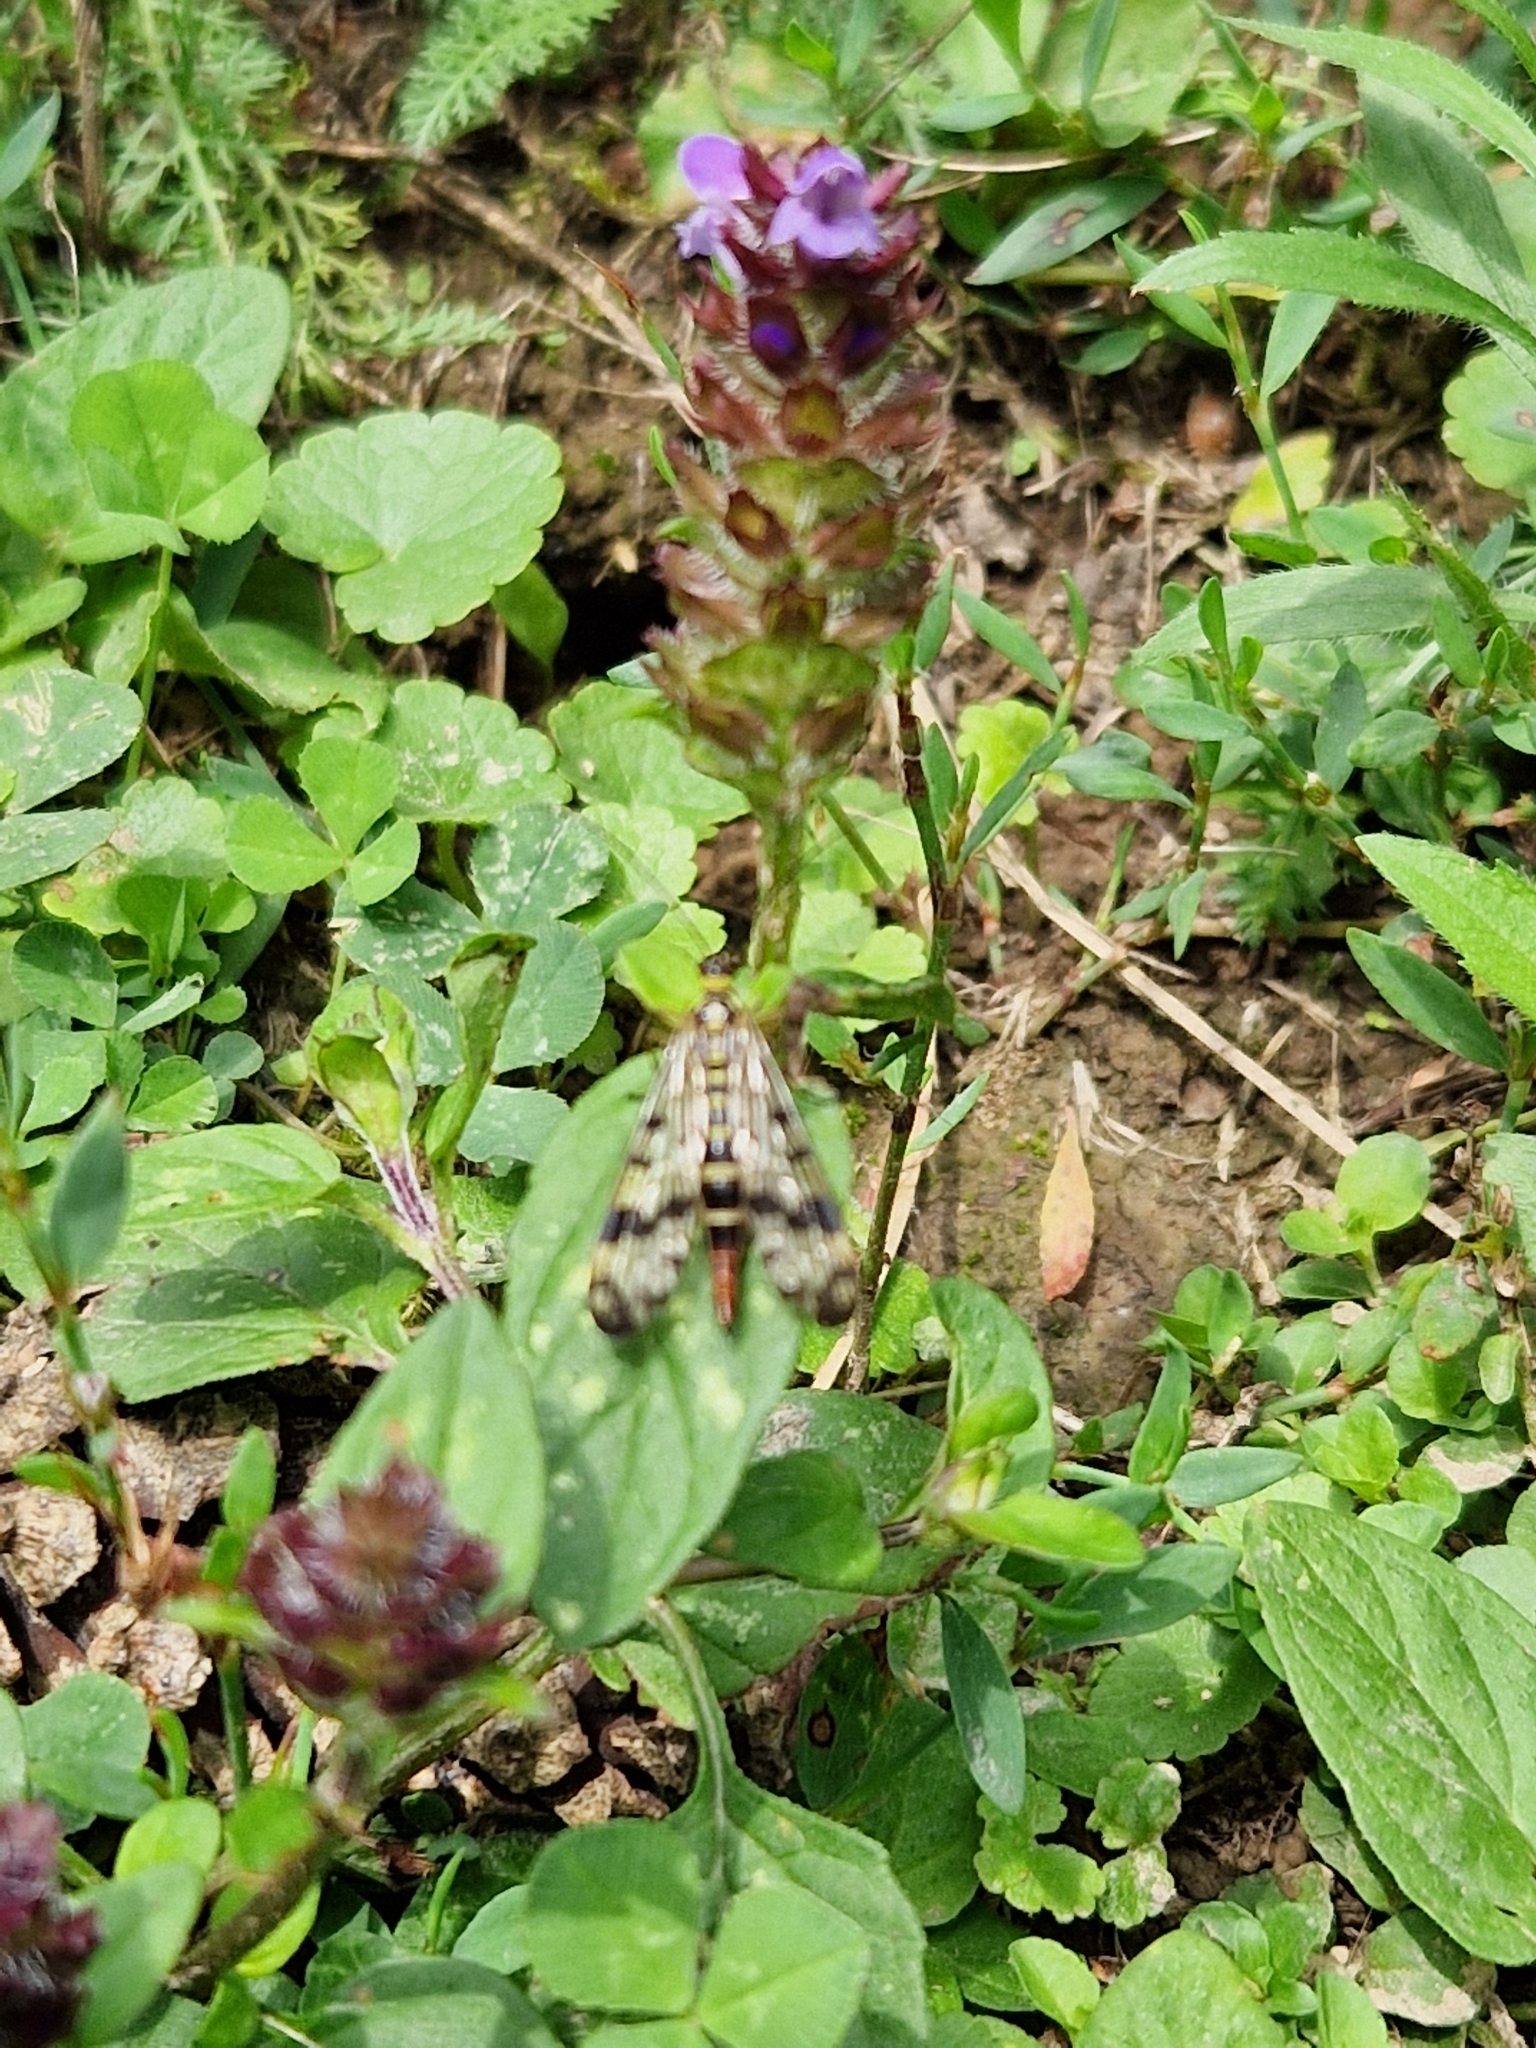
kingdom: Animalia
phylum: Arthropoda
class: Insecta
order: Mecoptera
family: Panorpidae
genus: Panorpa
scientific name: Panorpa communis
